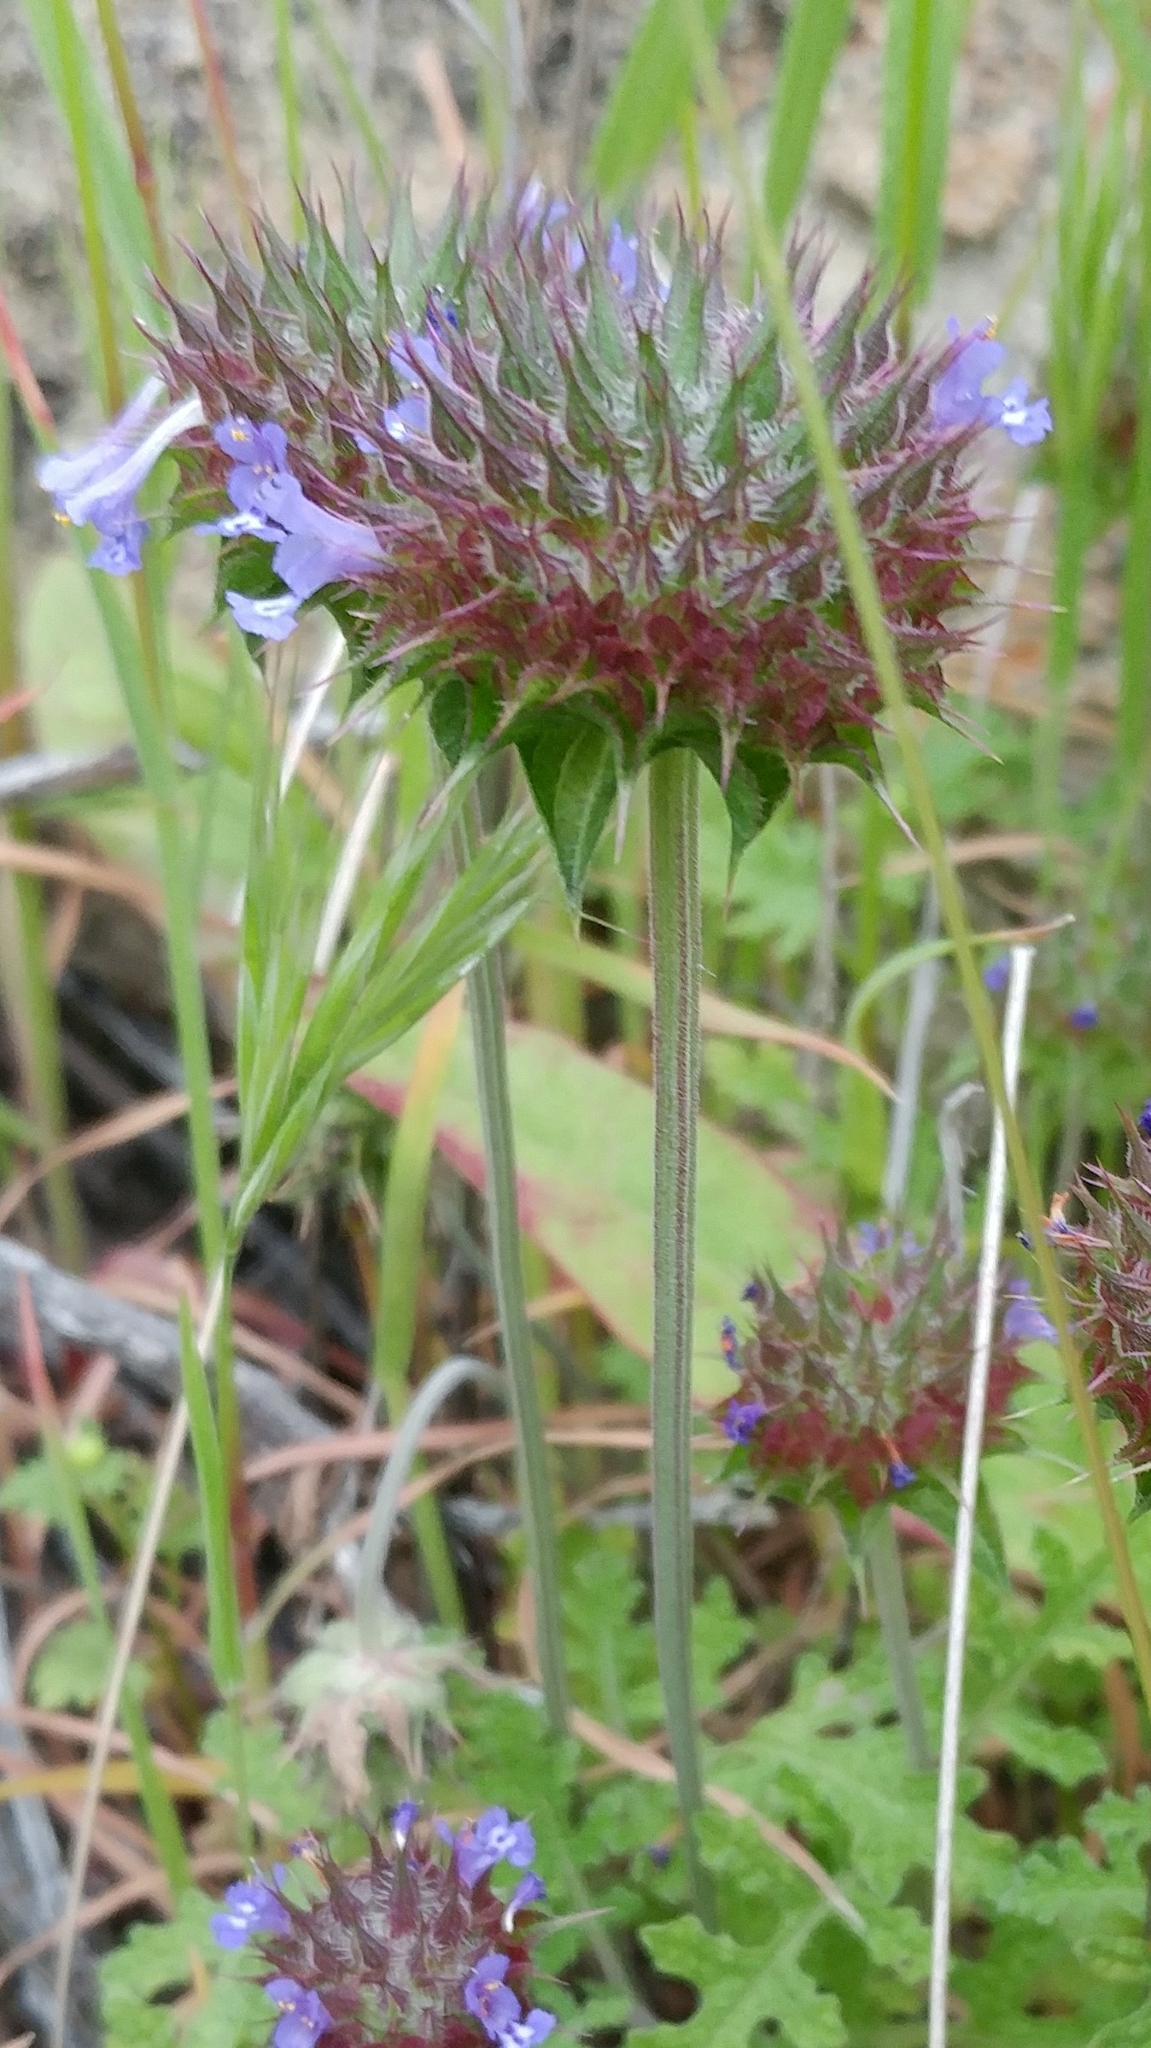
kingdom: Plantae
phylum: Tracheophyta
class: Magnoliopsida
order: Lamiales
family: Lamiaceae
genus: Salvia
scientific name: Salvia columbariae
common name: Chia
